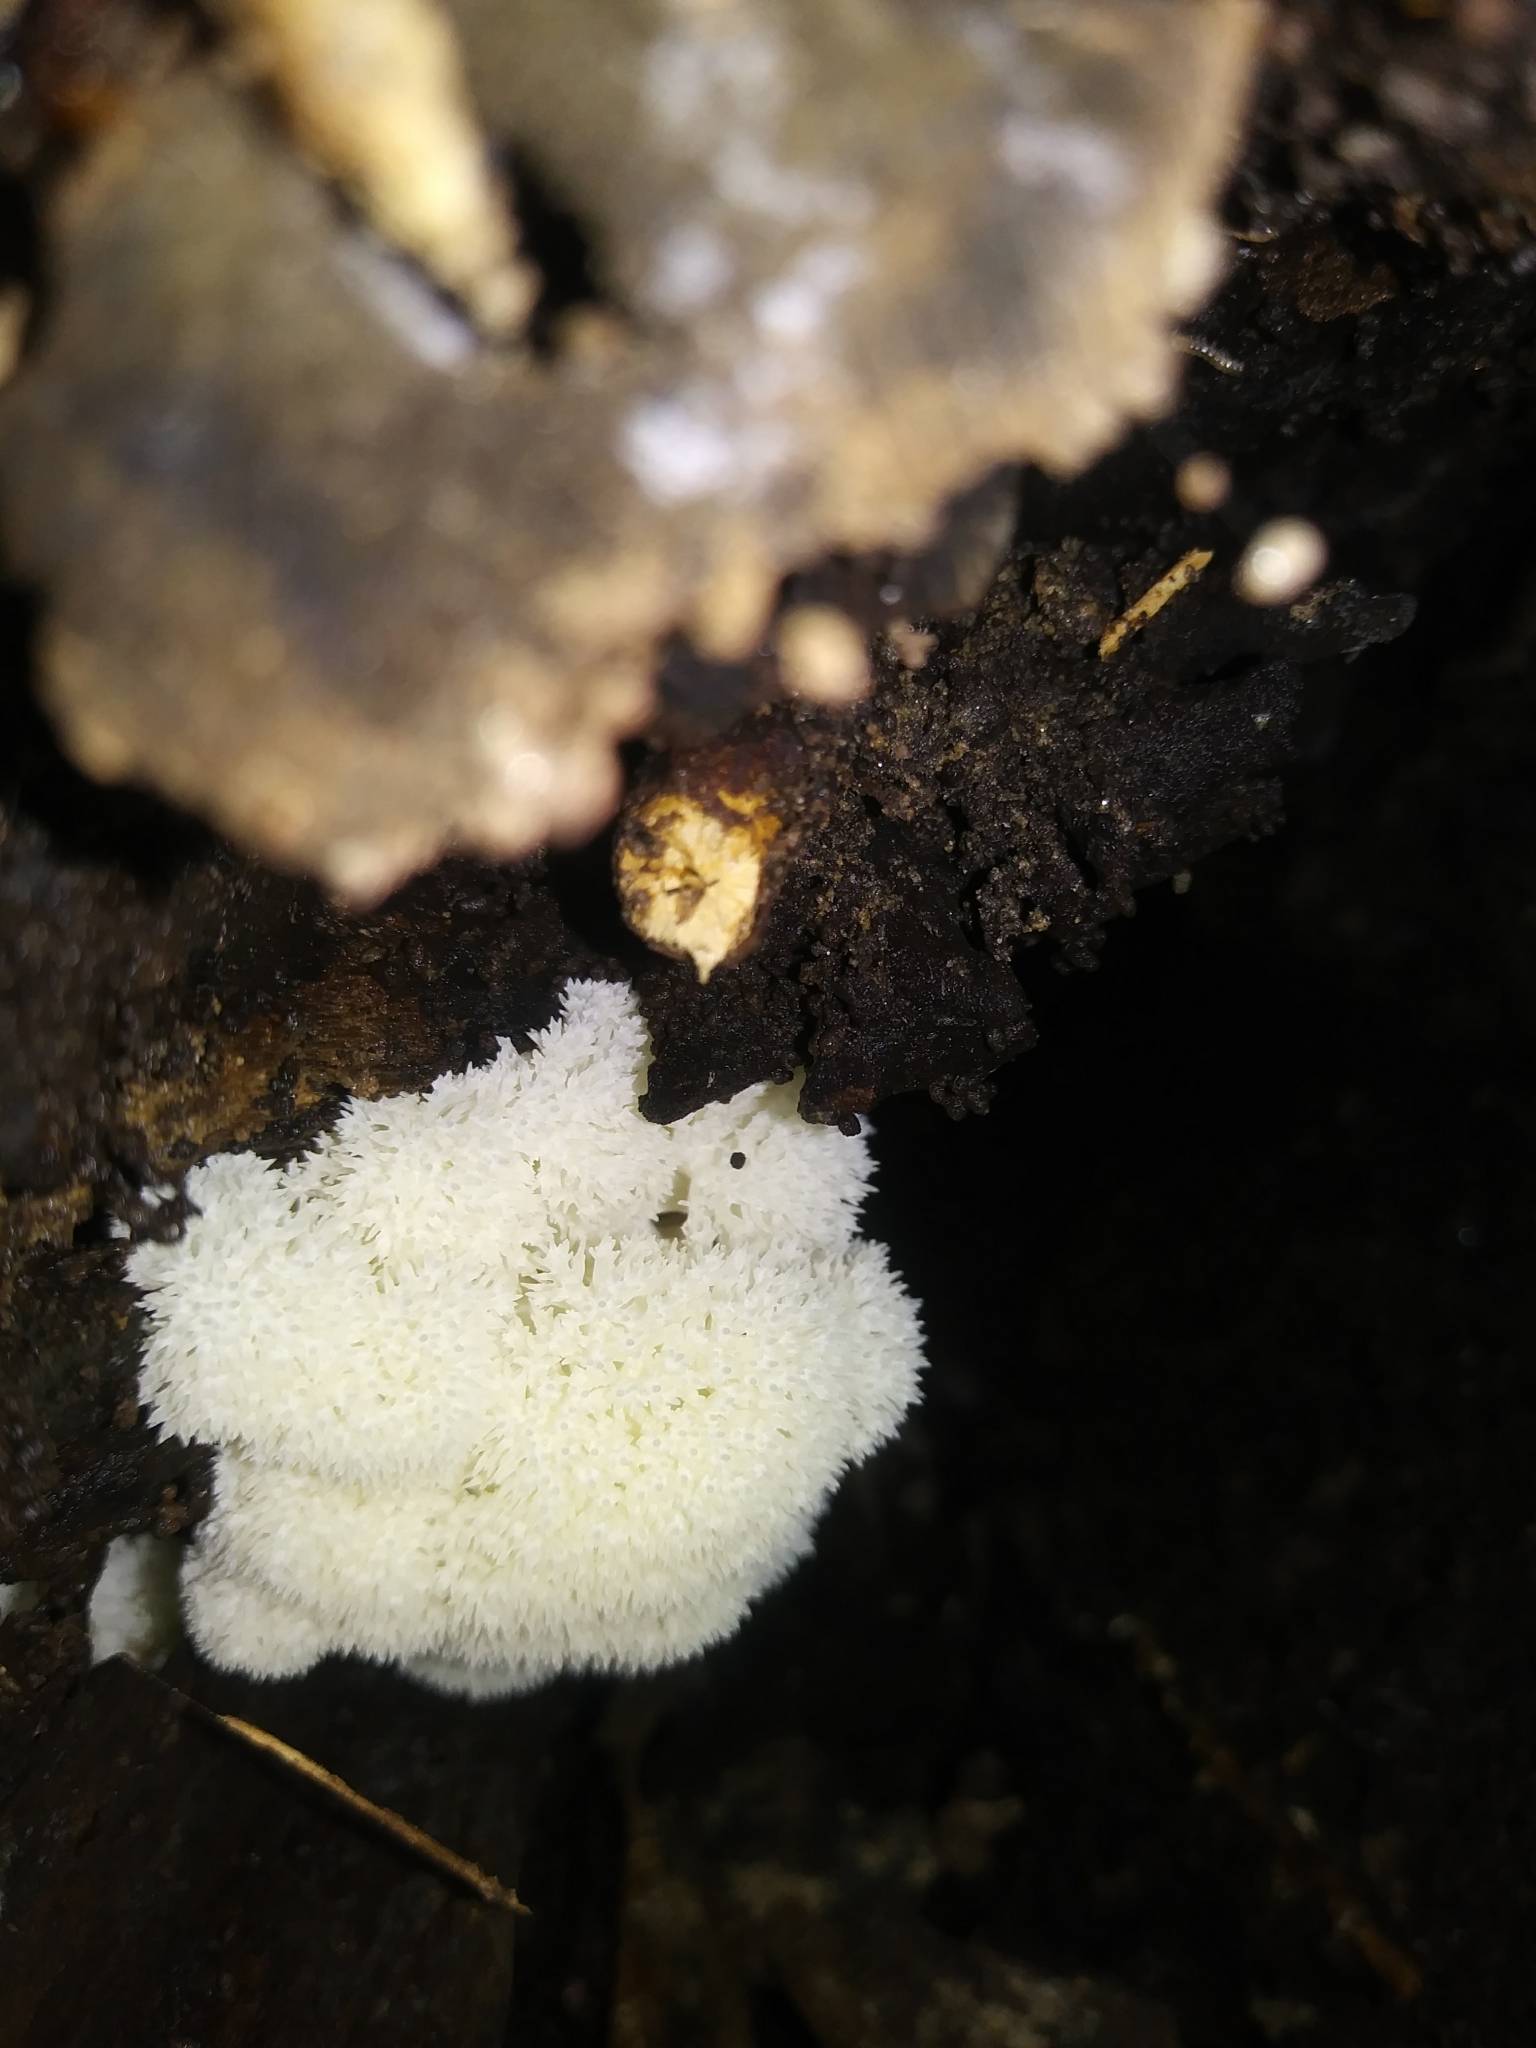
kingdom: Fungi
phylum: Basidiomycota
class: Agaricomycetes
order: Russulales
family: Hericiaceae
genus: Hericium
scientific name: Hericium erinaceus
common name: Bearded tooth
